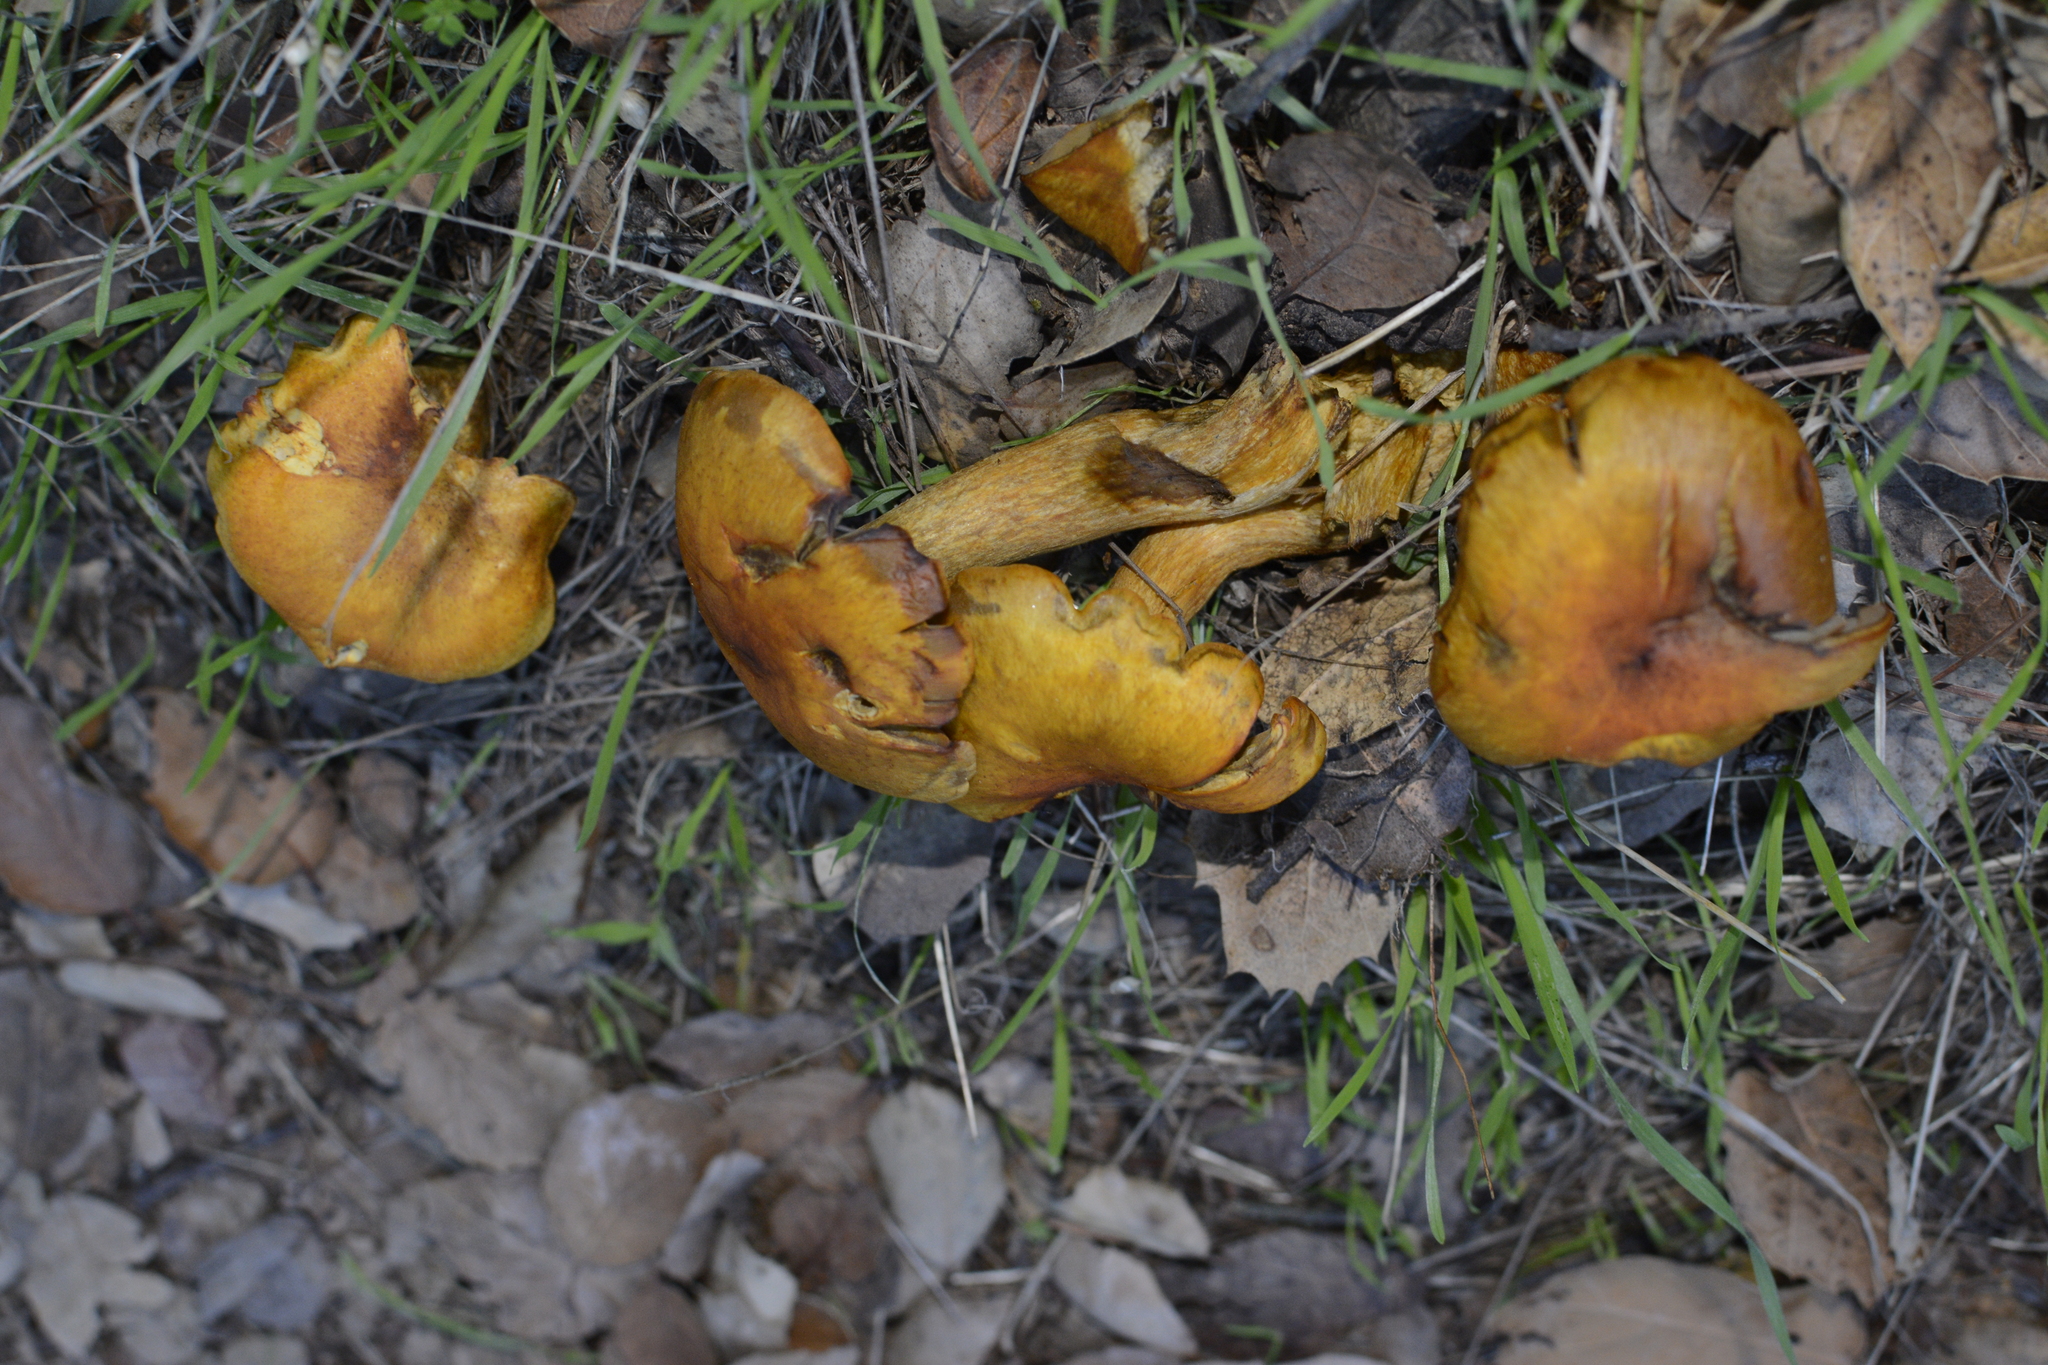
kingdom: Fungi
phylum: Basidiomycota
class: Agaricomycetes
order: Agaricales
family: Omphalotaceae
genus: Omphalotus
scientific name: Omphalotus olivascens
